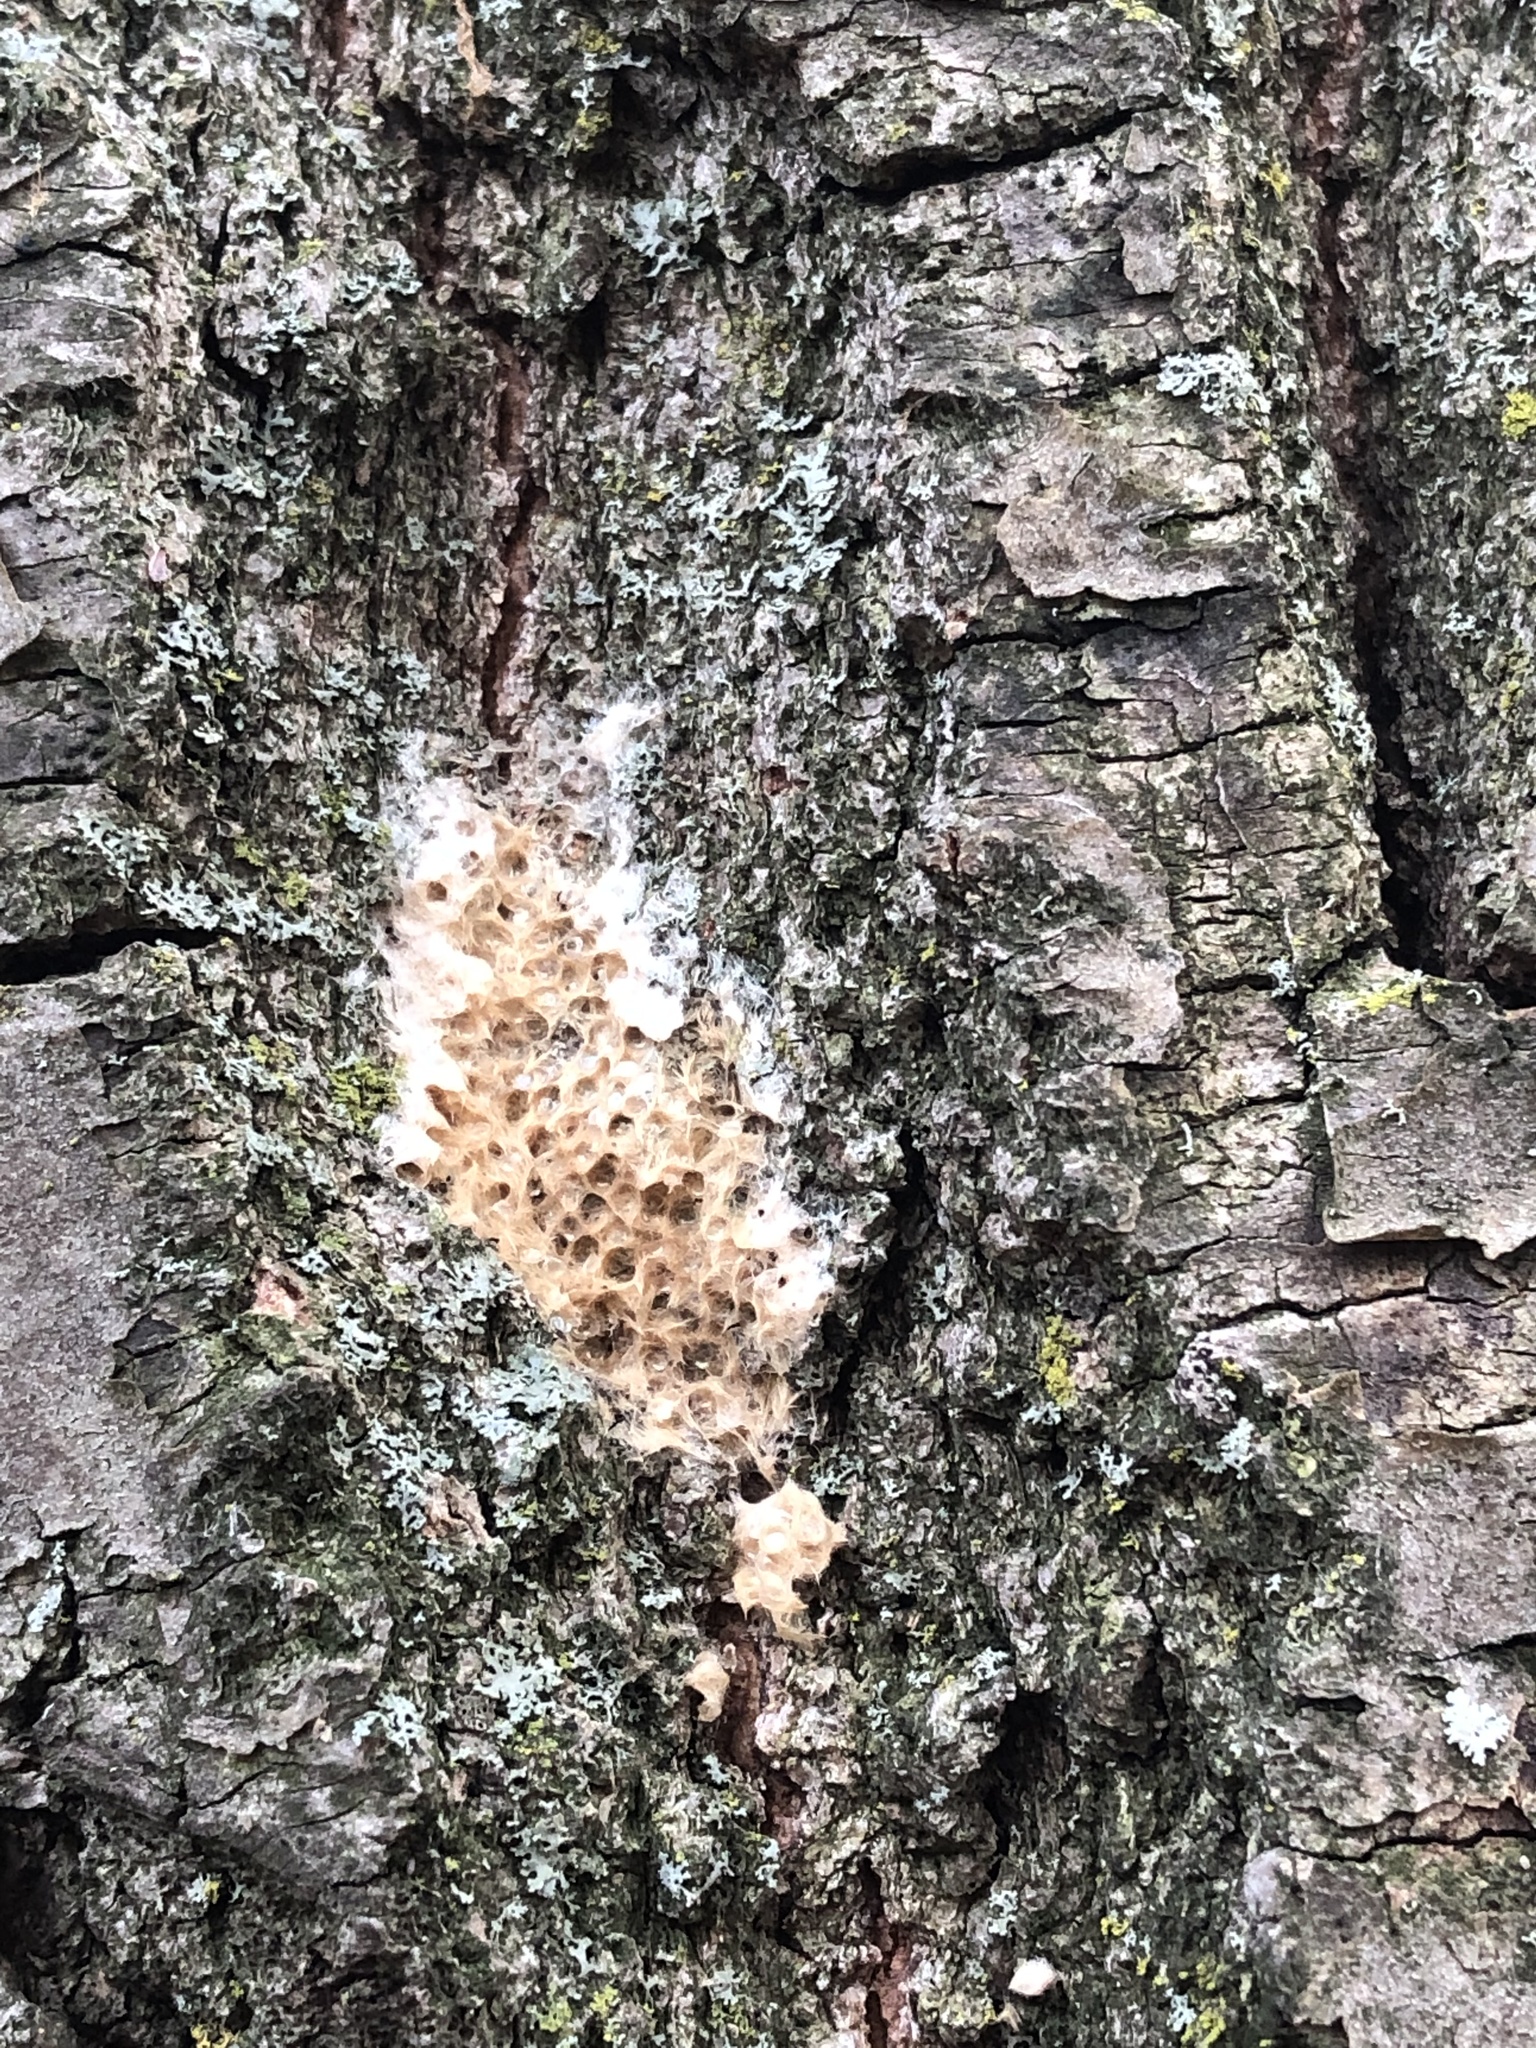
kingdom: Animalia
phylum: Arthropoda
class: Insecta
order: Lepidoptera
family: Erebidae
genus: Lymantria
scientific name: Lymantria dispar
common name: Gypsy moth
